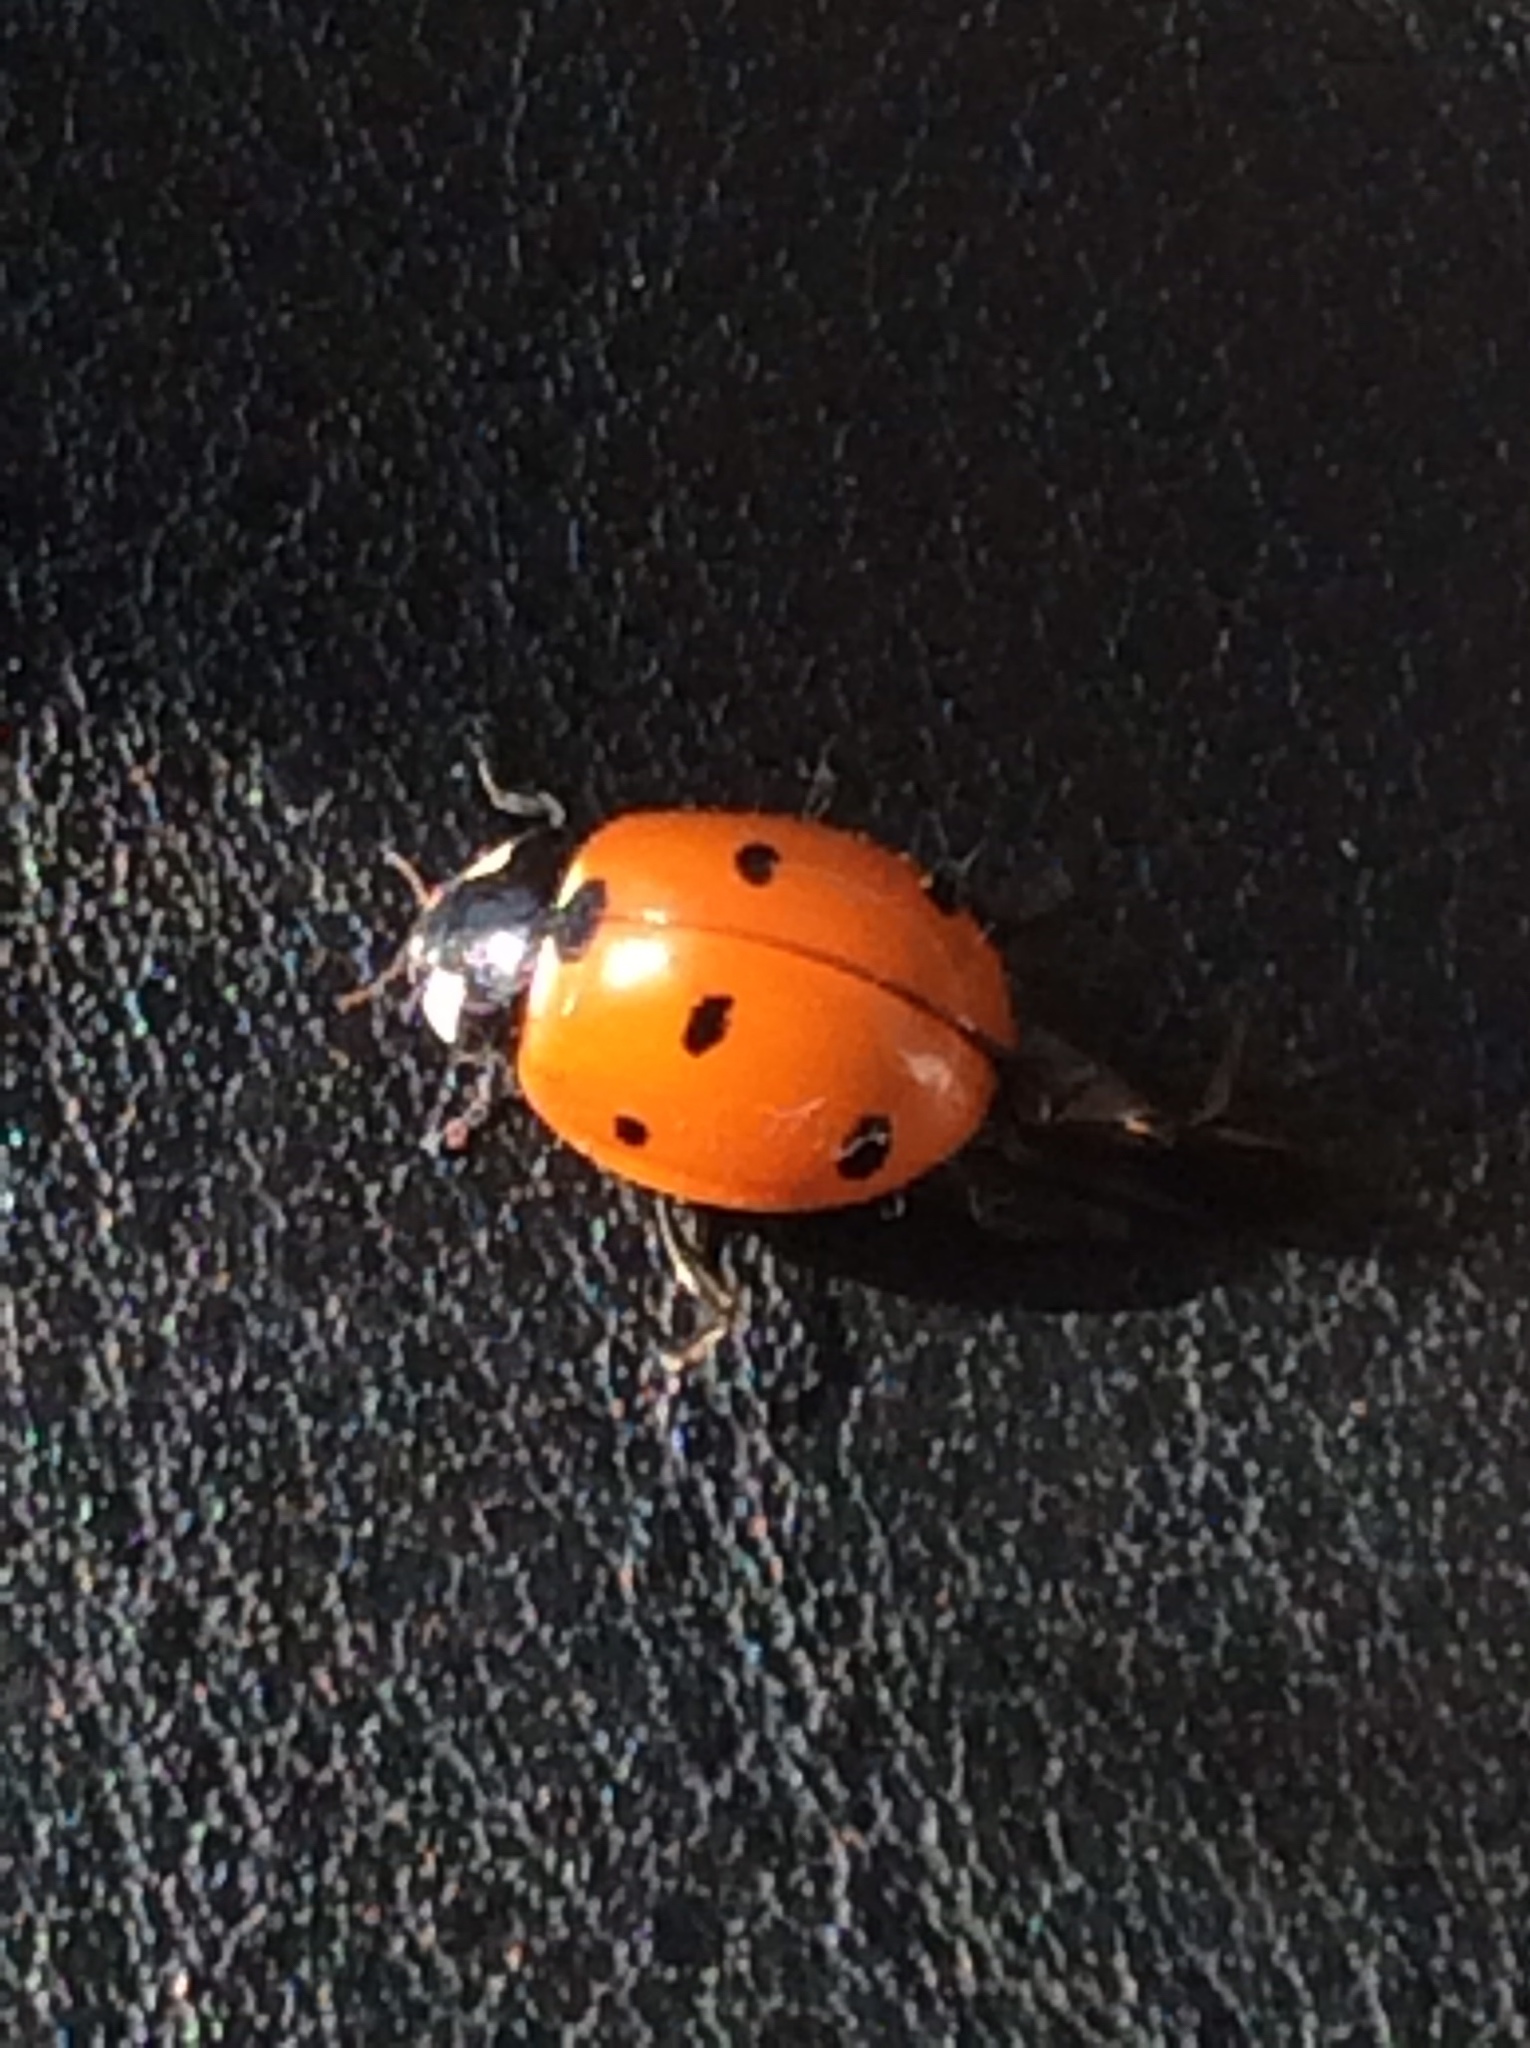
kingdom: Animalia
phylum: Arthropoda
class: Insecta
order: Coleoptera
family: Coccinellidae
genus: Coccinella
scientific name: Coccinella septempunctata
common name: Sevenspotted lady beetle
